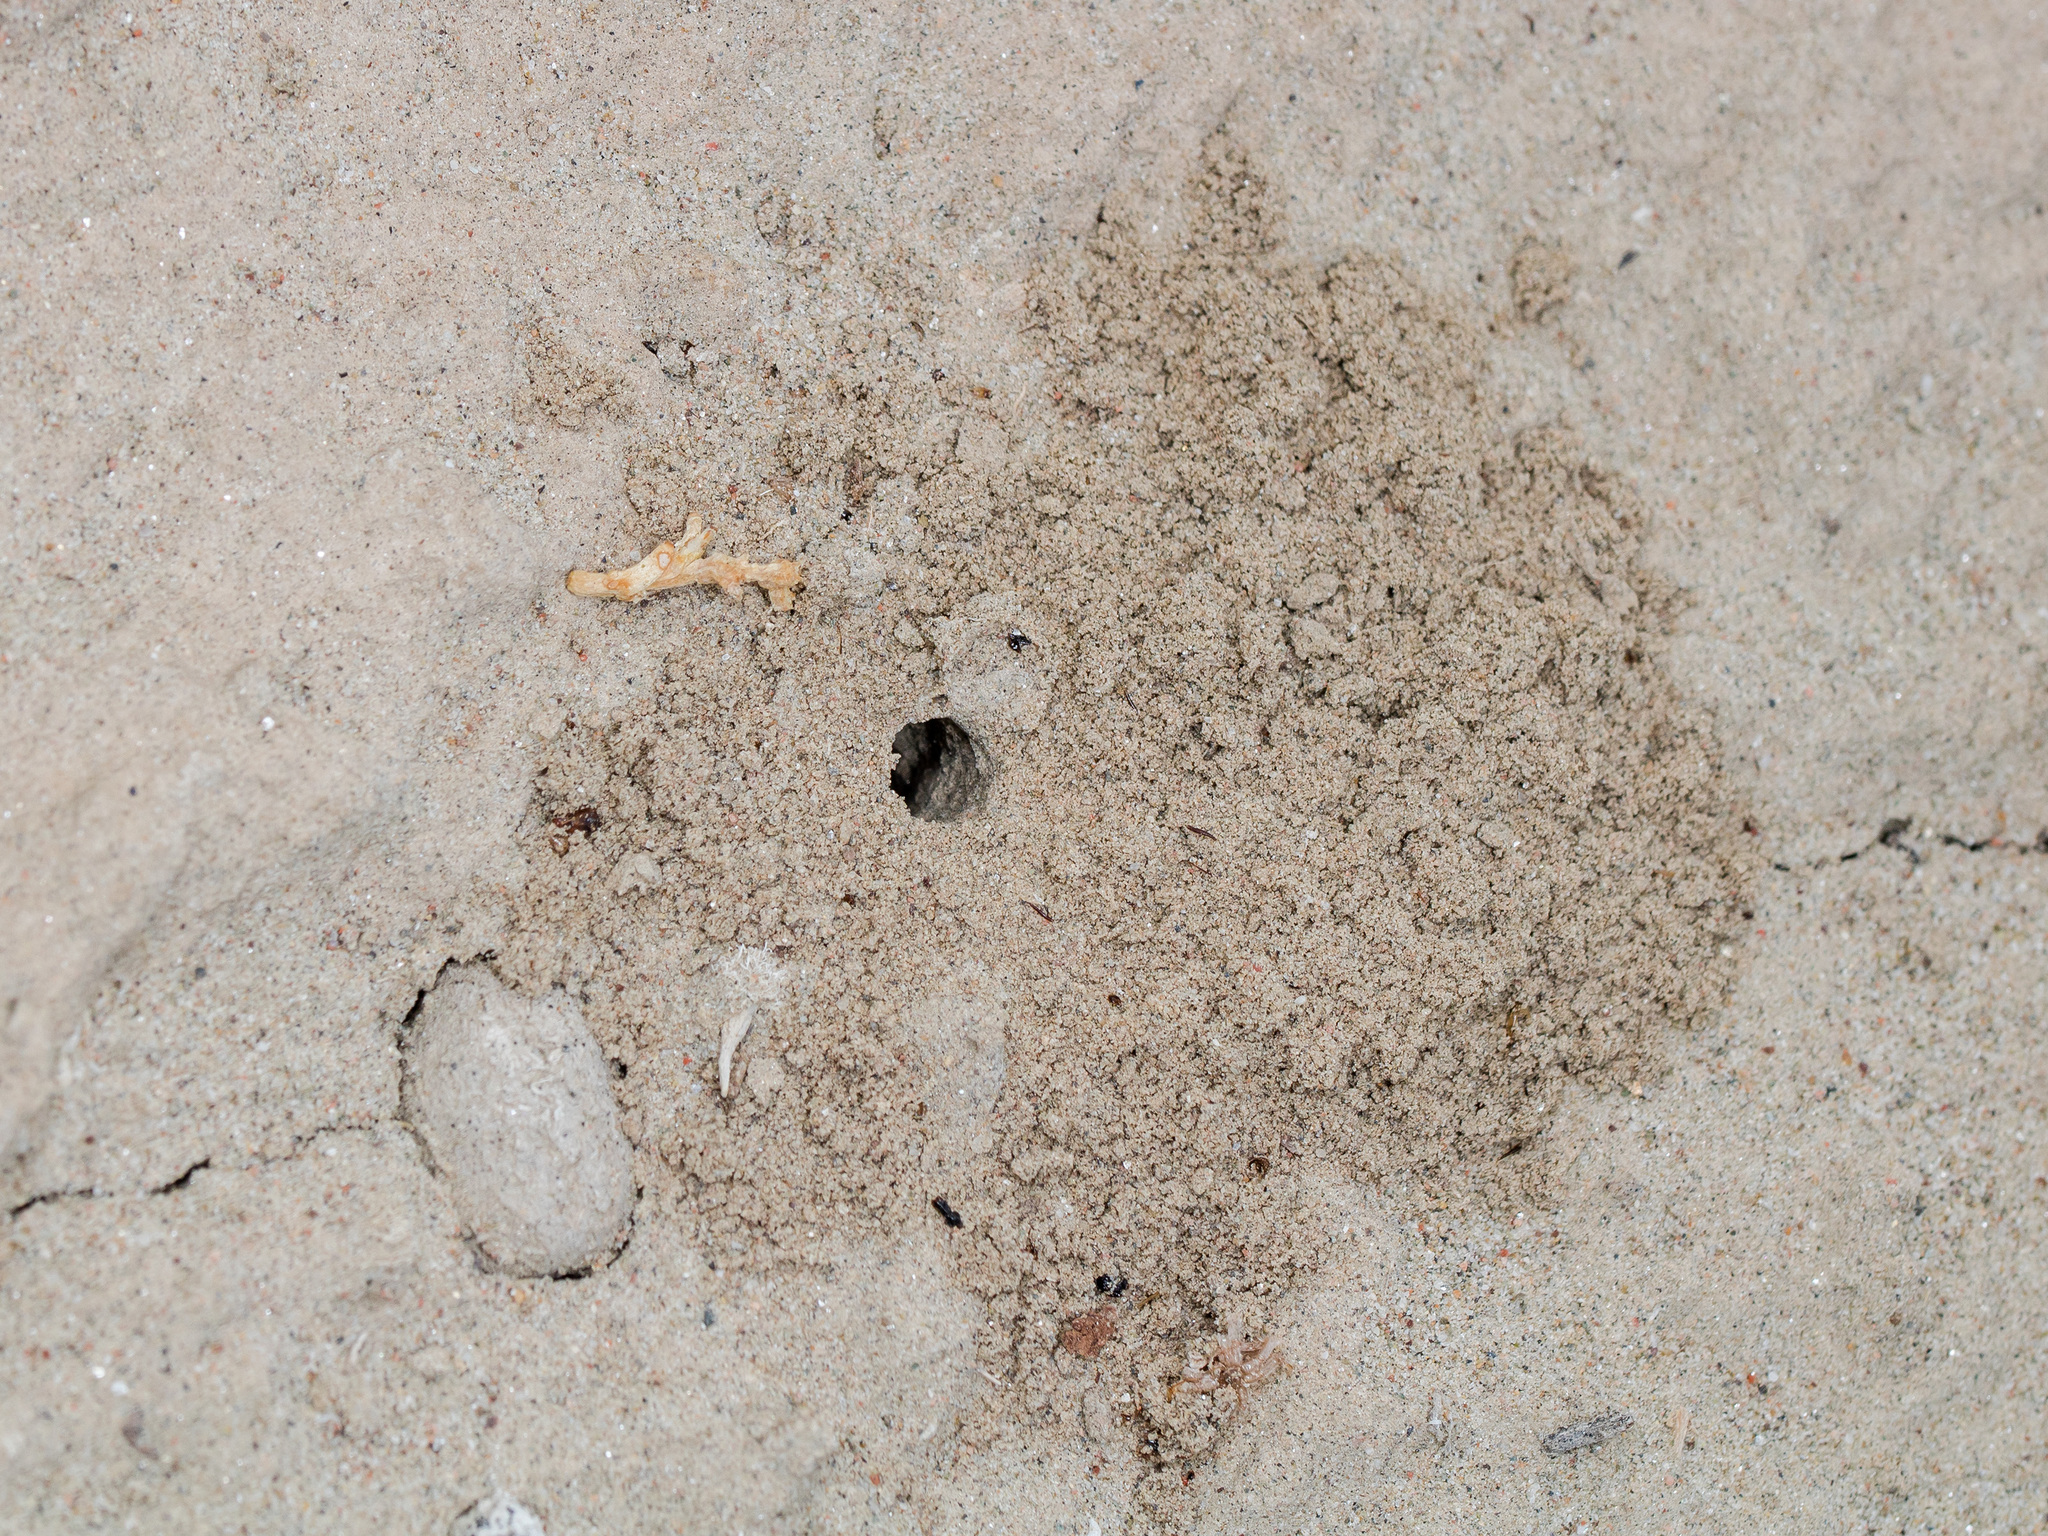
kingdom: Animalia
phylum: Arthropoda
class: Arachnida
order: Araneae
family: Lycosidae
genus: Alopecosa
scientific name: Alopecosa marikovskyi
